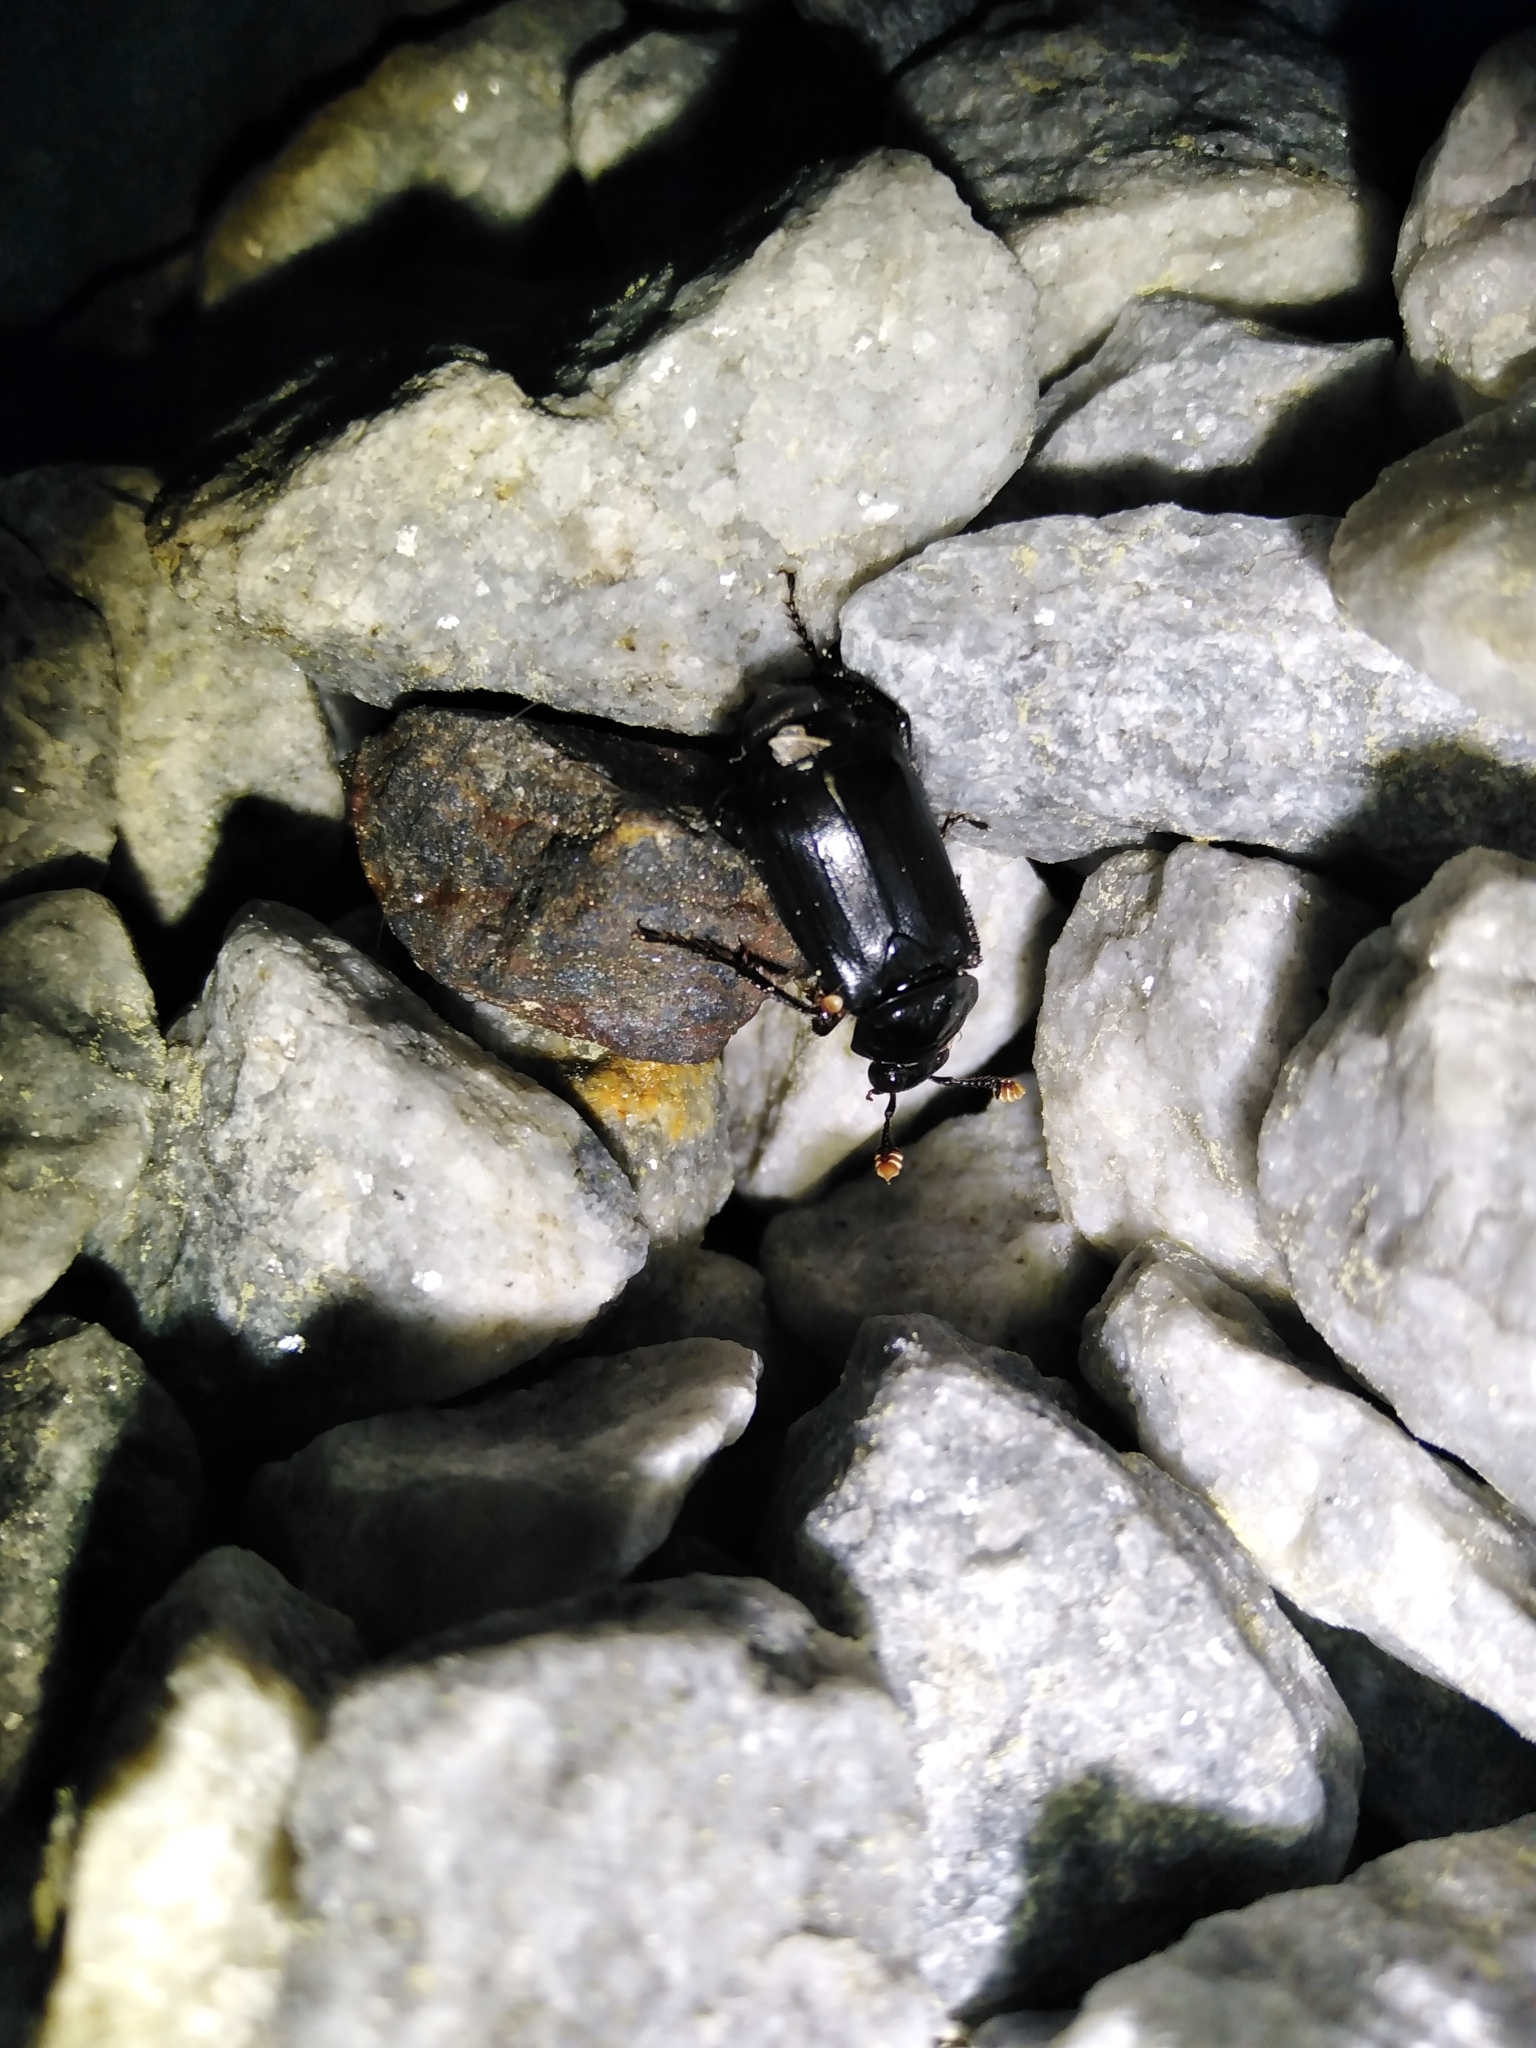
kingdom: Animalia
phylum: Arthropoda
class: Insecta
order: Coleoptera
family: Staphylinidae
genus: Nicrophorus
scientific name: Nicrophorus humator
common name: Black sexton beetle
